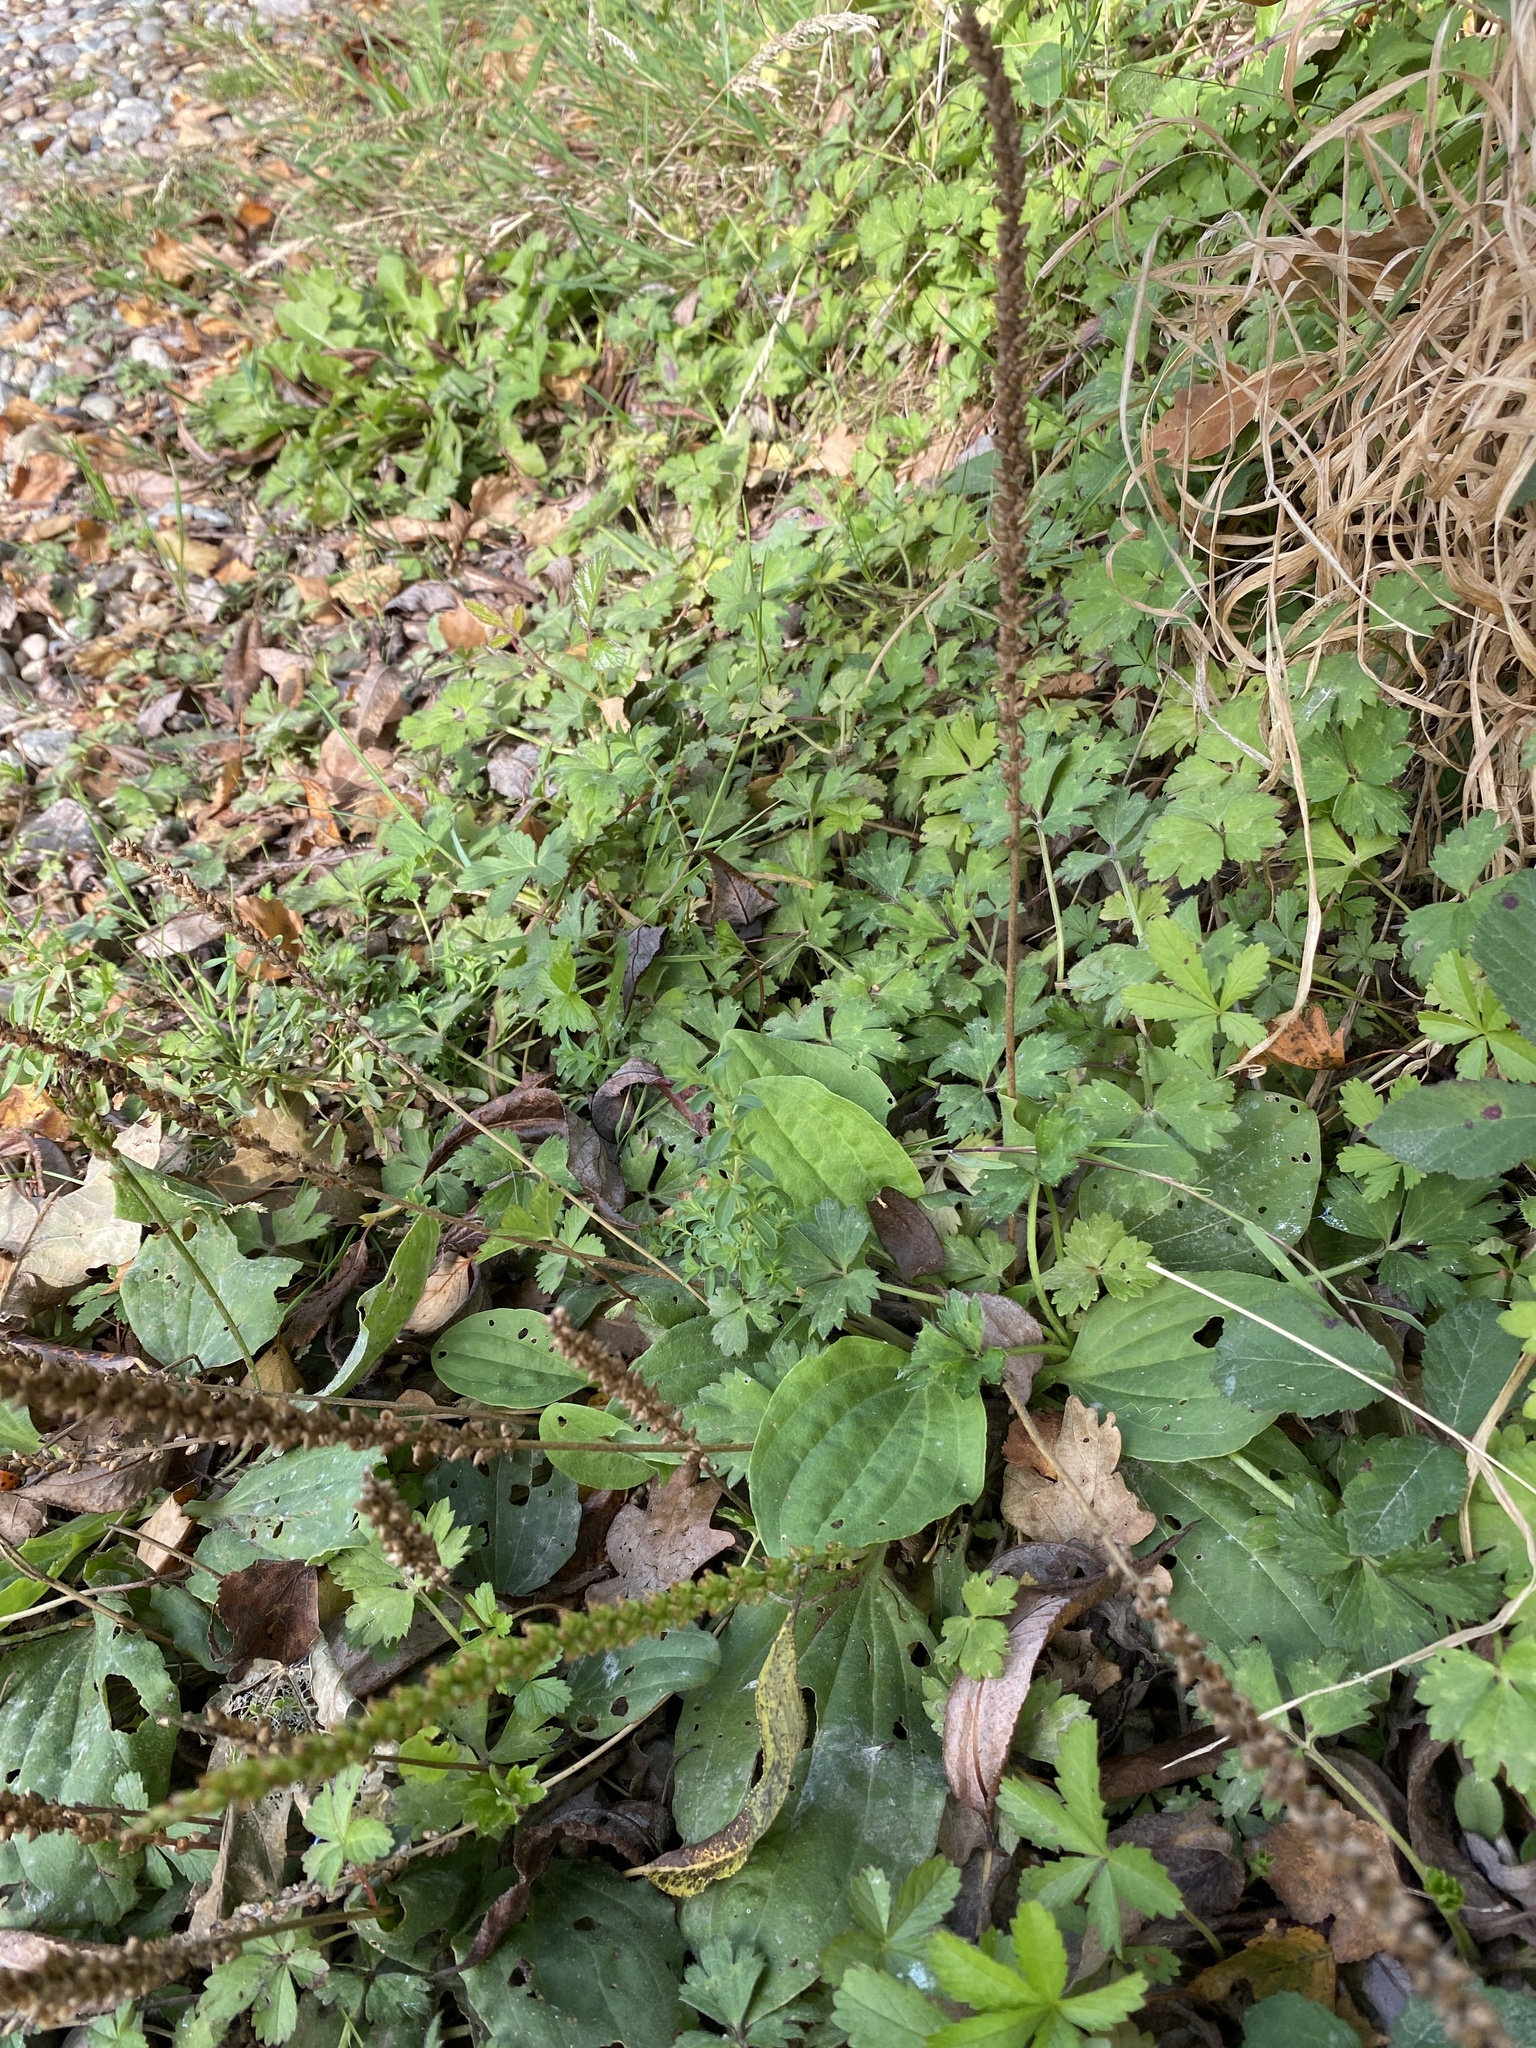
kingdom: Plantae
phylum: Tracheophyta
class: Magnoliopsida
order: Lamiales
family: Plantaginaceae
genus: Plantago
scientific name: Plantago major
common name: Common plantain
